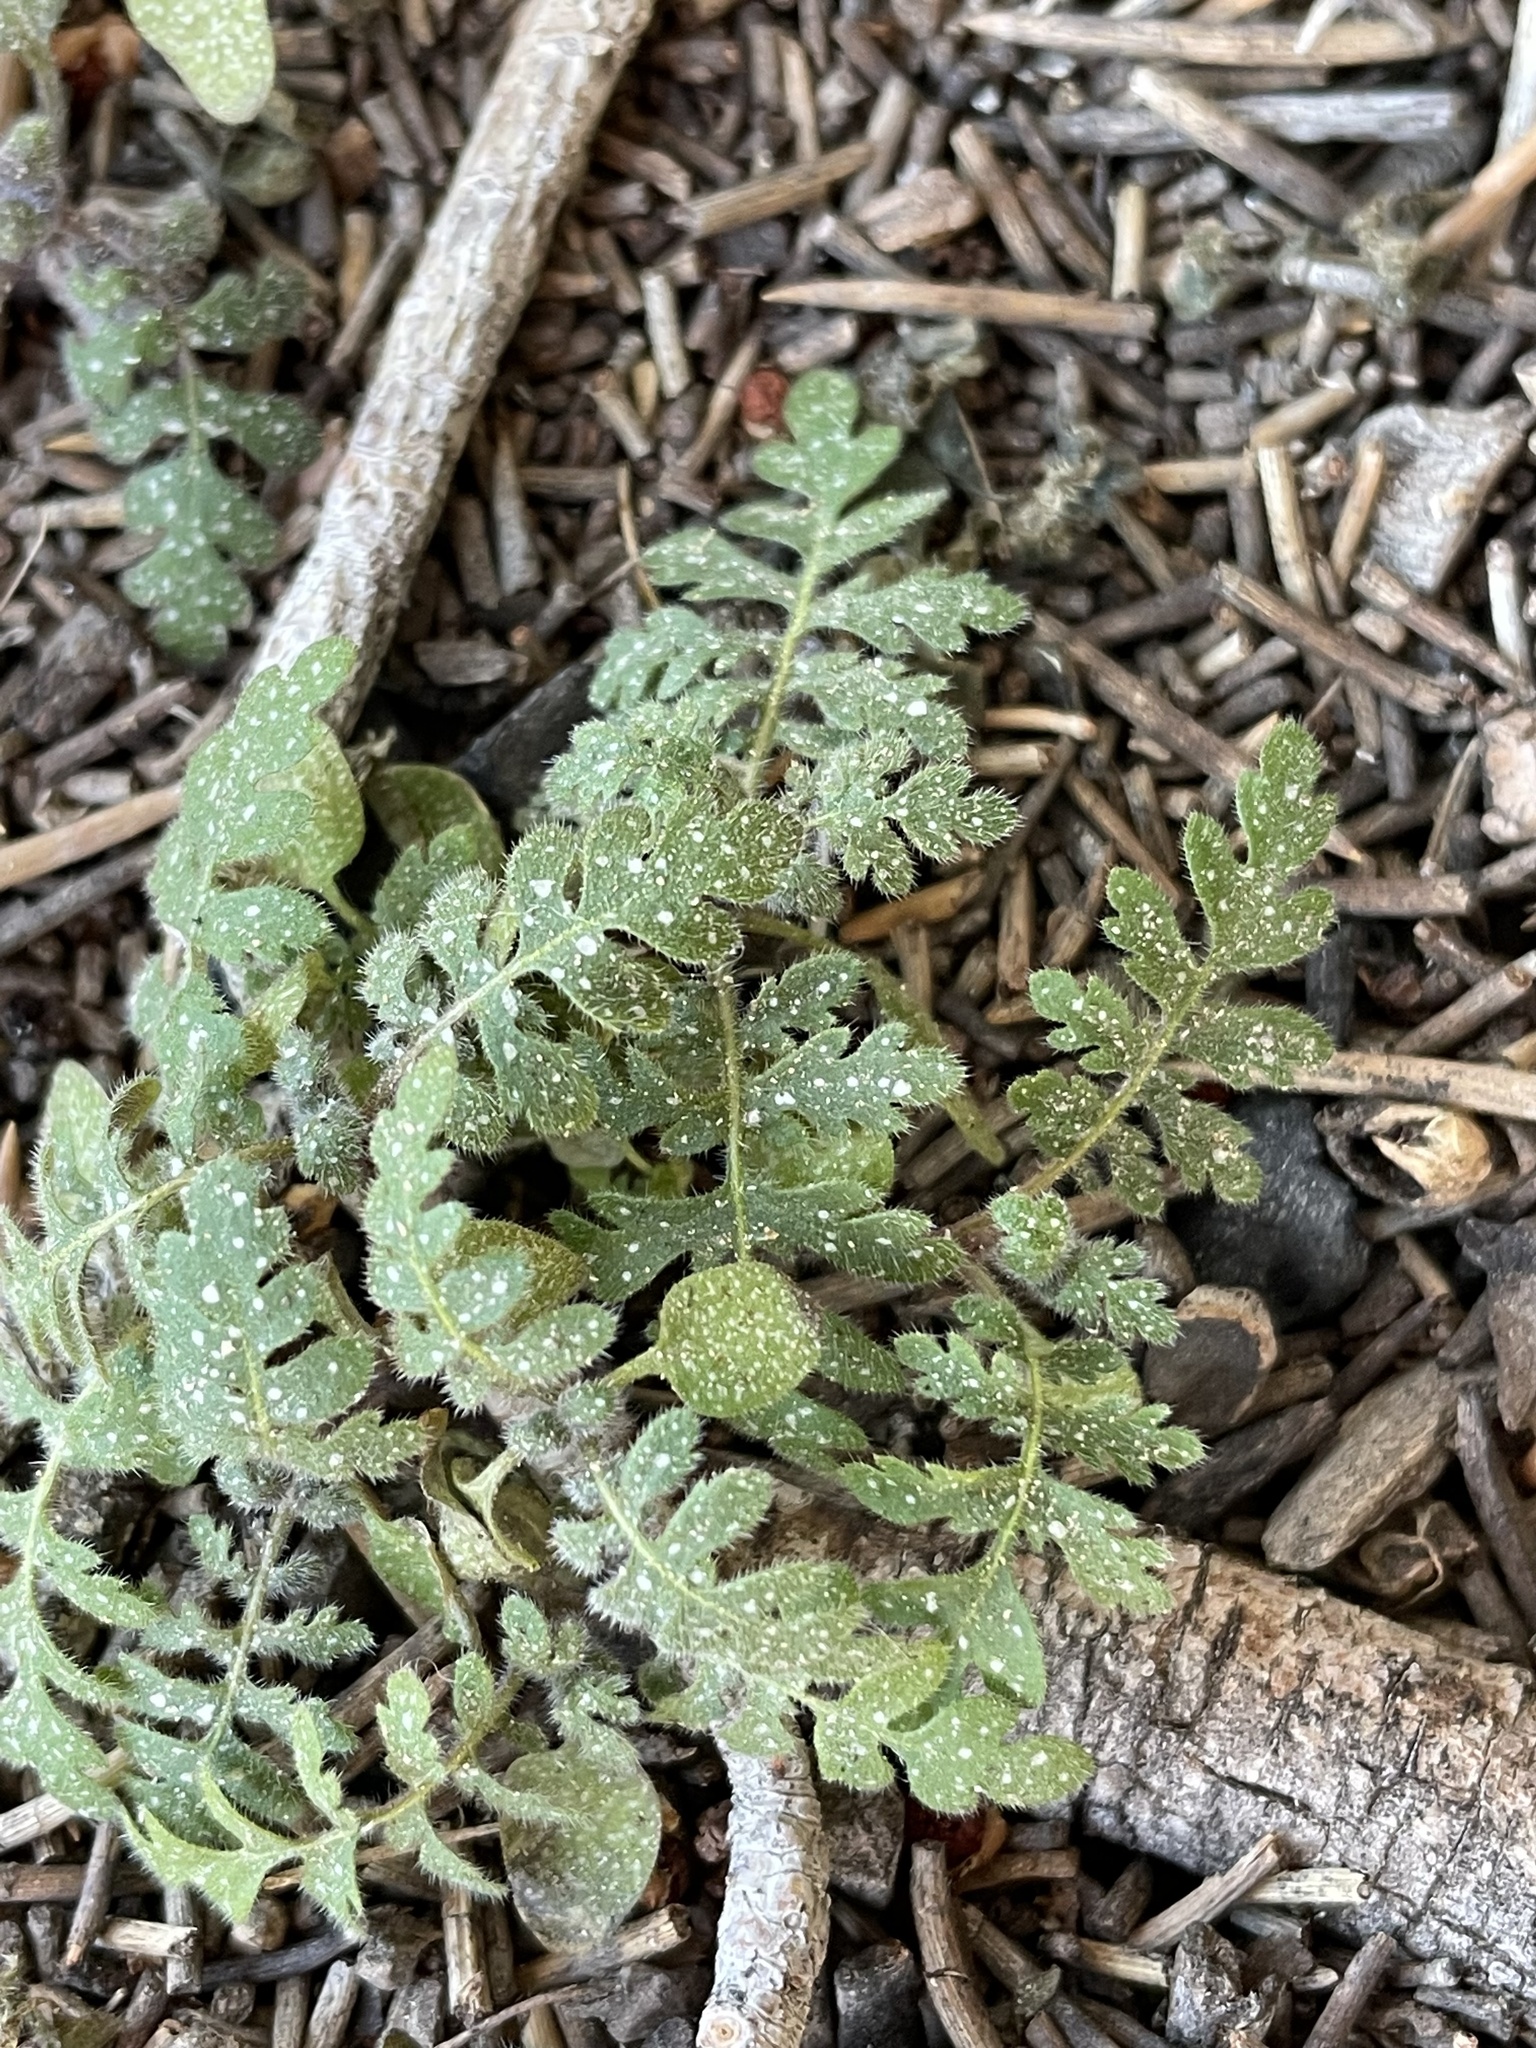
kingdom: Plantae
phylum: Tracheophyta
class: Magnoliopsida
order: Boraginales
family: Hydrophyllaceae
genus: Eucrypta
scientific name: Eucrypta chrysanthemifolia
